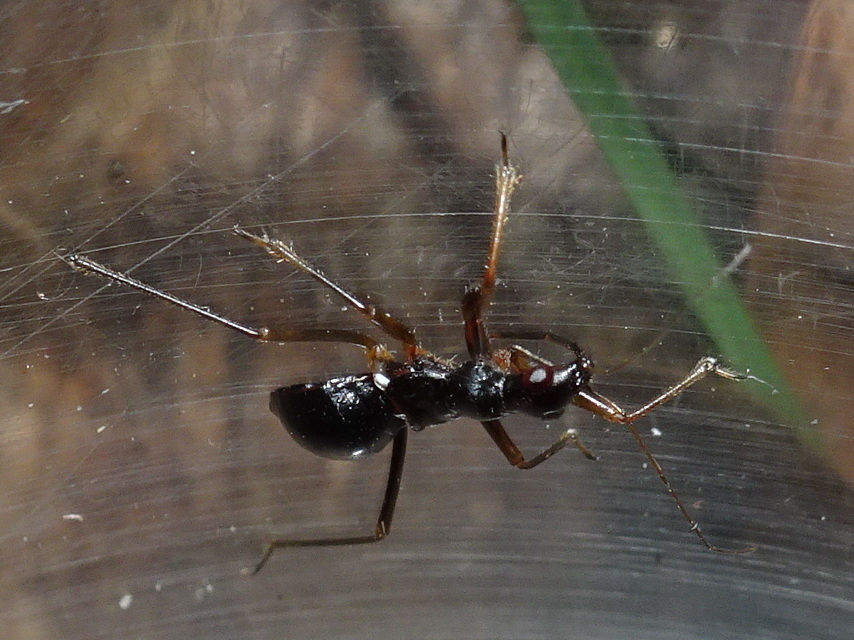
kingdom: Animalia
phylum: Arthropoda
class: Insecta
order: Hemiptera
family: Nabidae
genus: Nabis
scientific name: Nabis
